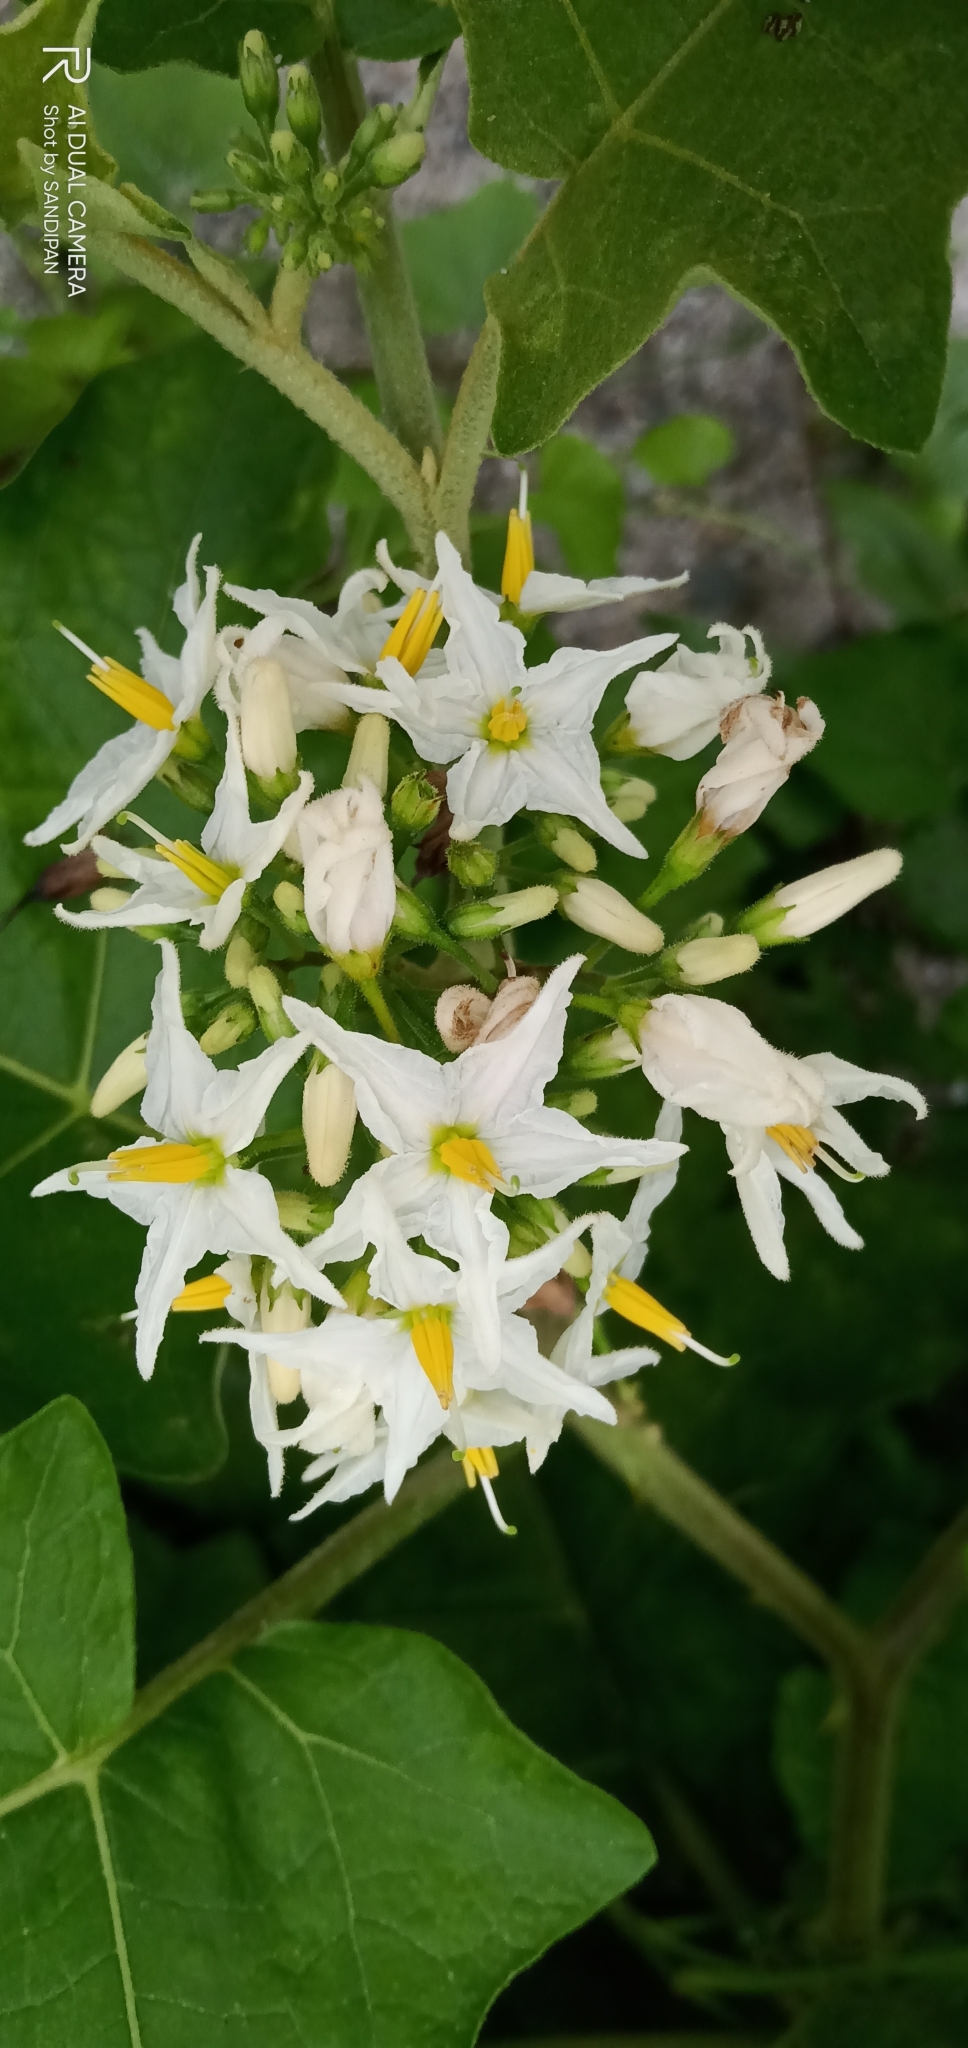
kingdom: Plantae
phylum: Tracheophyta
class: Magnoliopsida
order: Solanales
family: Solanaceae
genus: Solanum
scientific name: Solanum torvum
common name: Turkey berry
